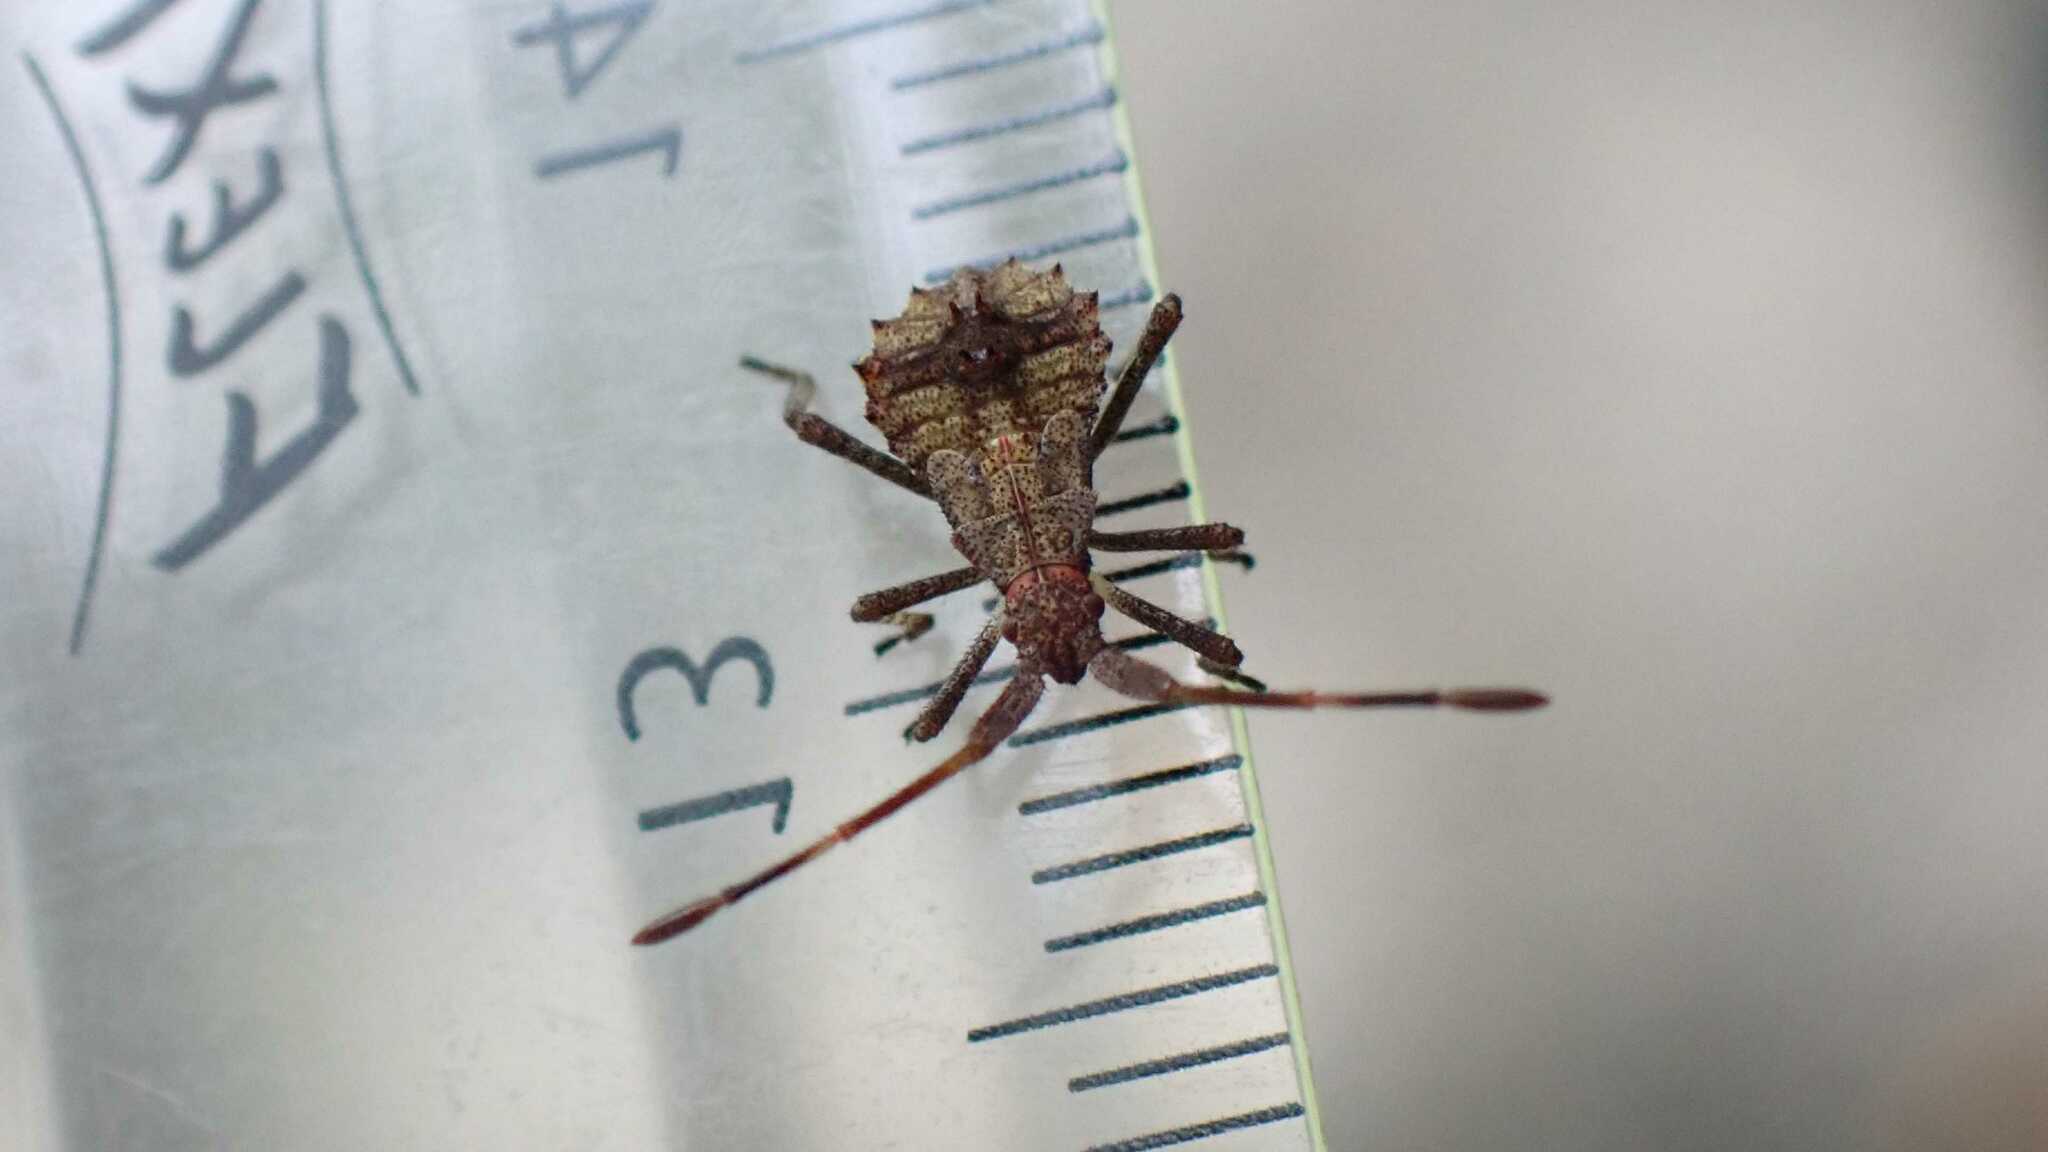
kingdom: Animalia
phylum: Arthropoda
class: Insecta
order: Hemiptera
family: Coreidae
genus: Coreus
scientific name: Coreus marginatus
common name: Dock bug
